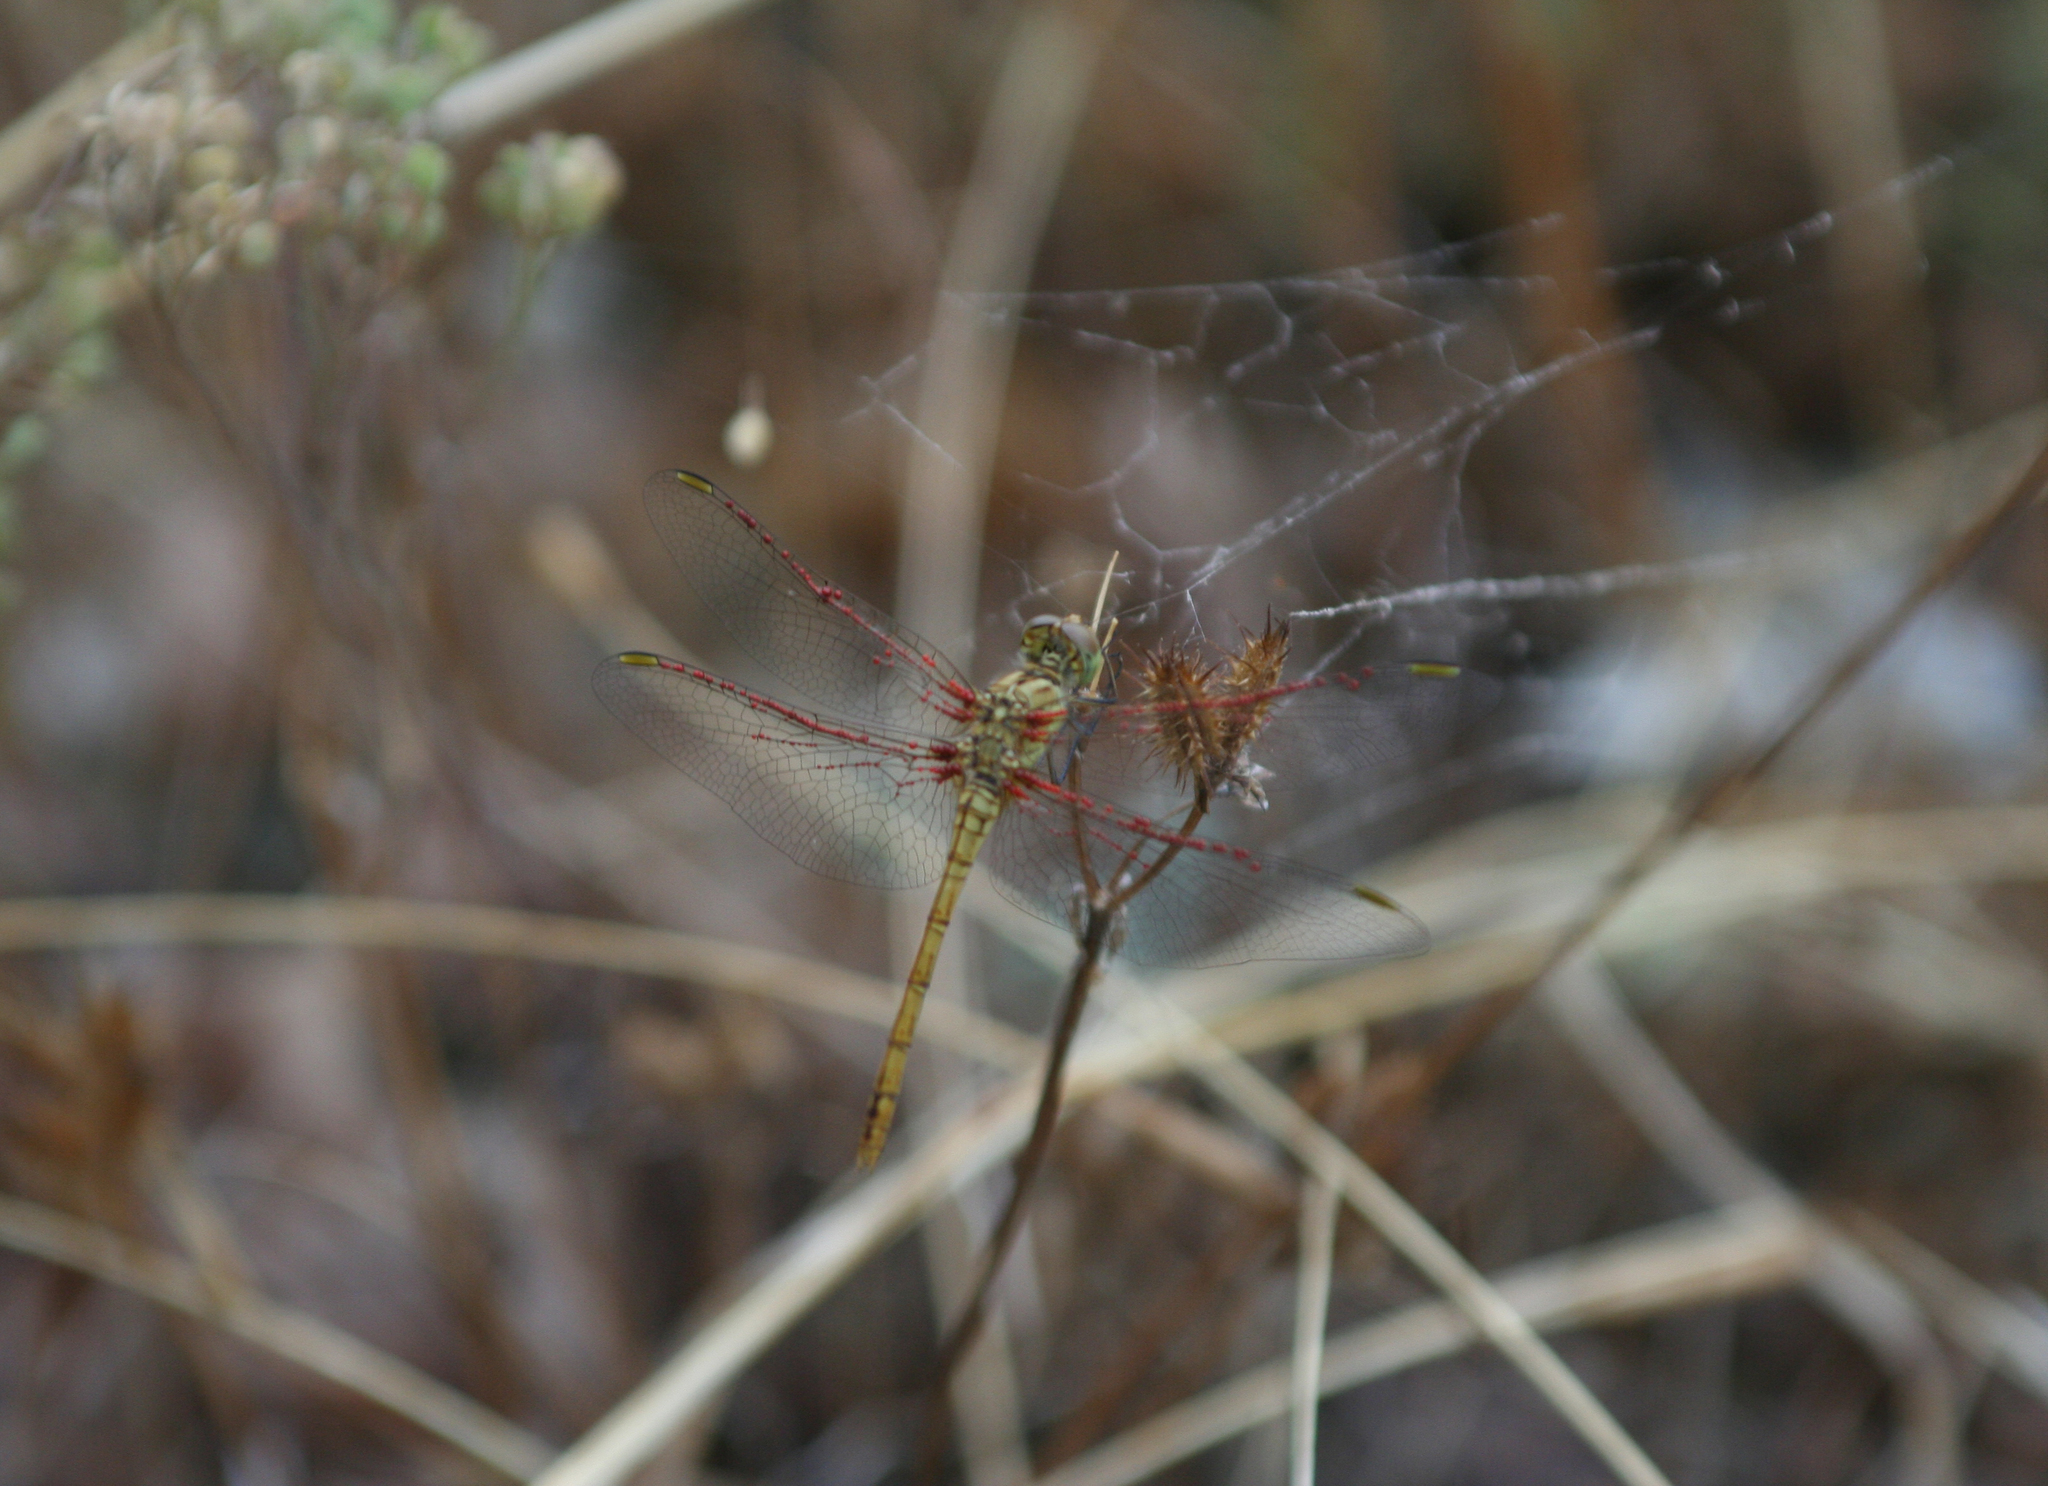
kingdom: Animalia
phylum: Arthropoda
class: Insecta
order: Odonata
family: Libellulidae
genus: Sympetrum
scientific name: Sympetrum meridionale
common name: Southern darter
